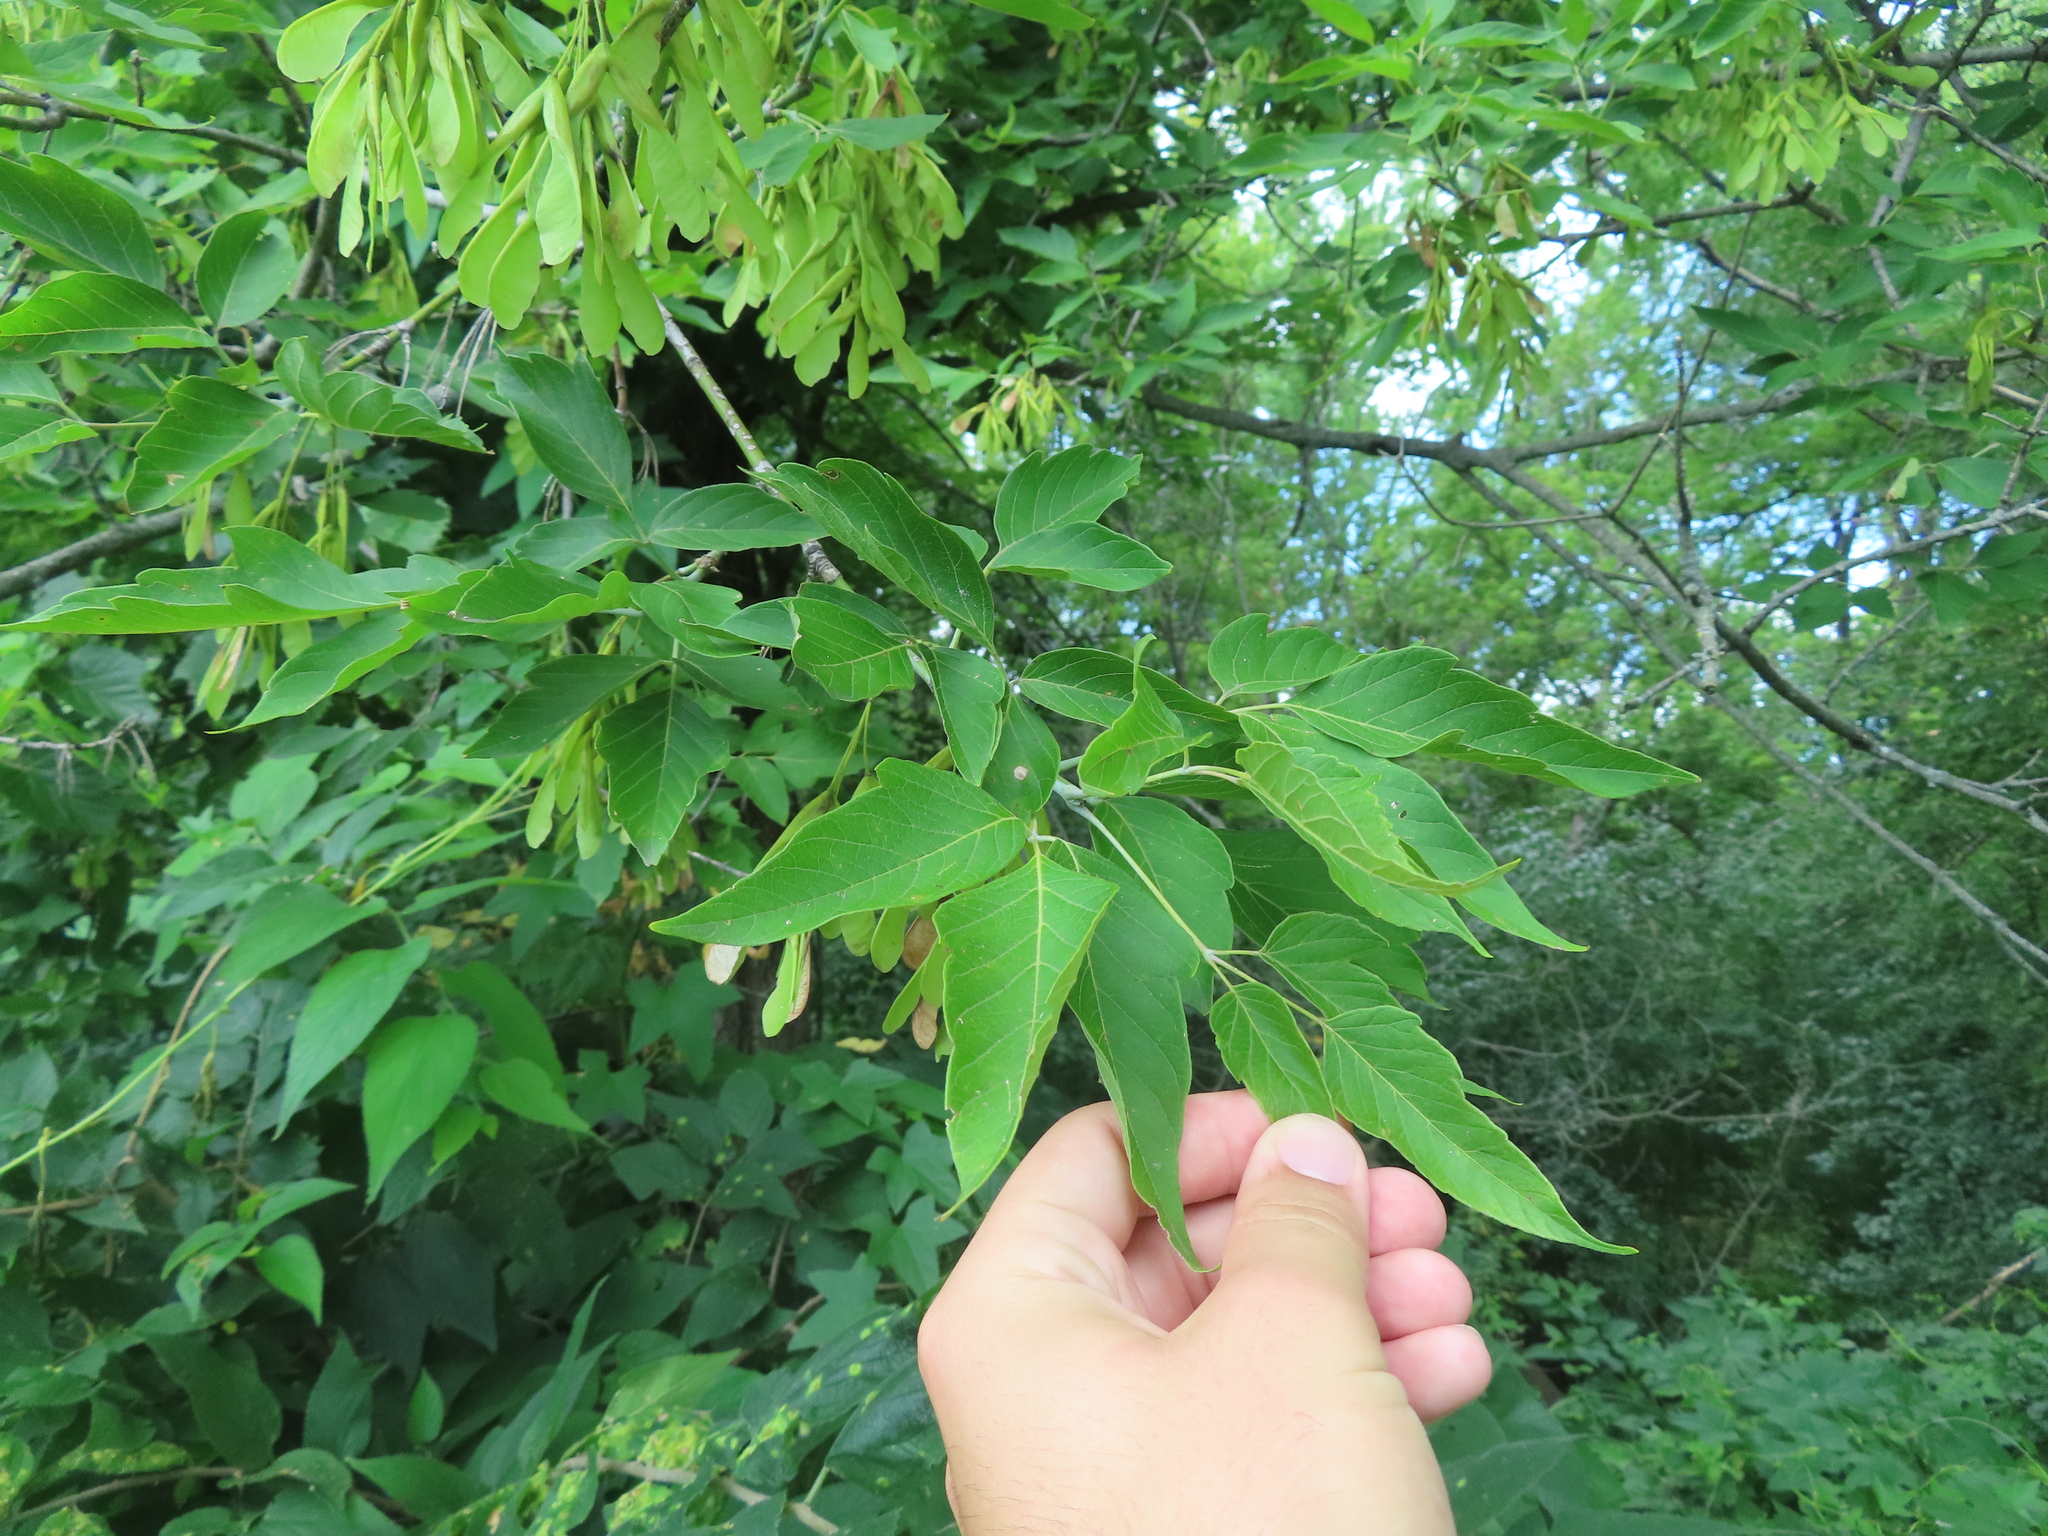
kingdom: Plantae
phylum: Tracheophyta
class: Magnoliopsida
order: Sapindales
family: Sapindaceae
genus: Acer
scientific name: Acer negundo
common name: Ashleaf maple
